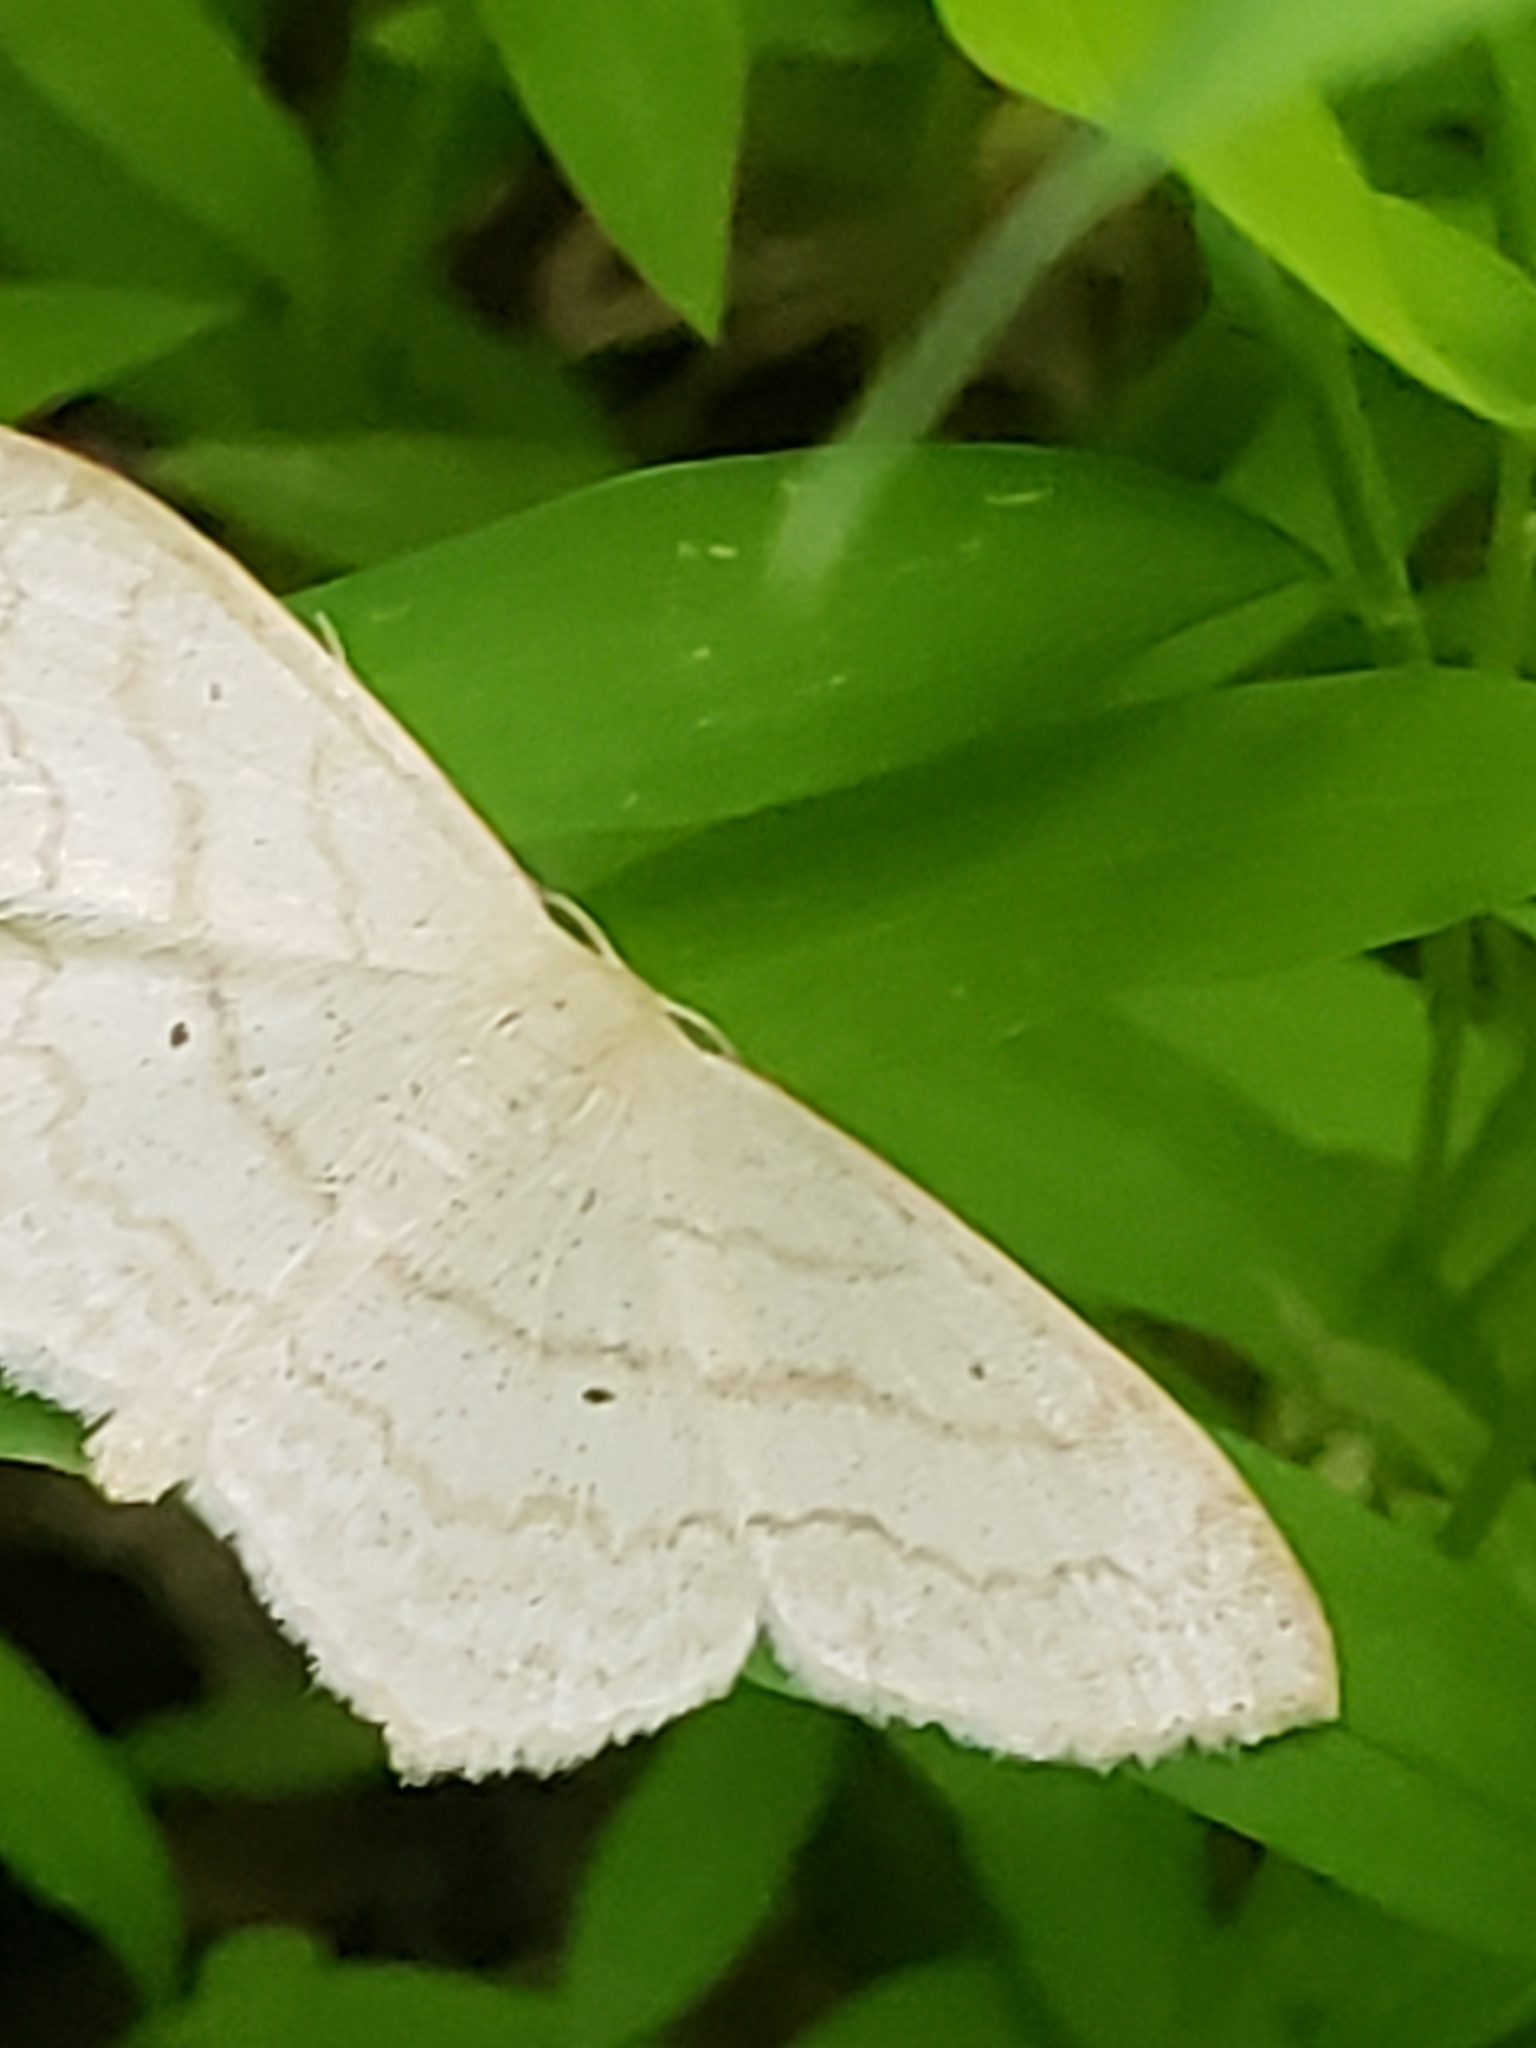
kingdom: Animalia
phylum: Arthropoda
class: Insecta
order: Lepidoptera
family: Geometridae
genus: Scopula
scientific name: Scopula limboundata
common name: Large lace border
